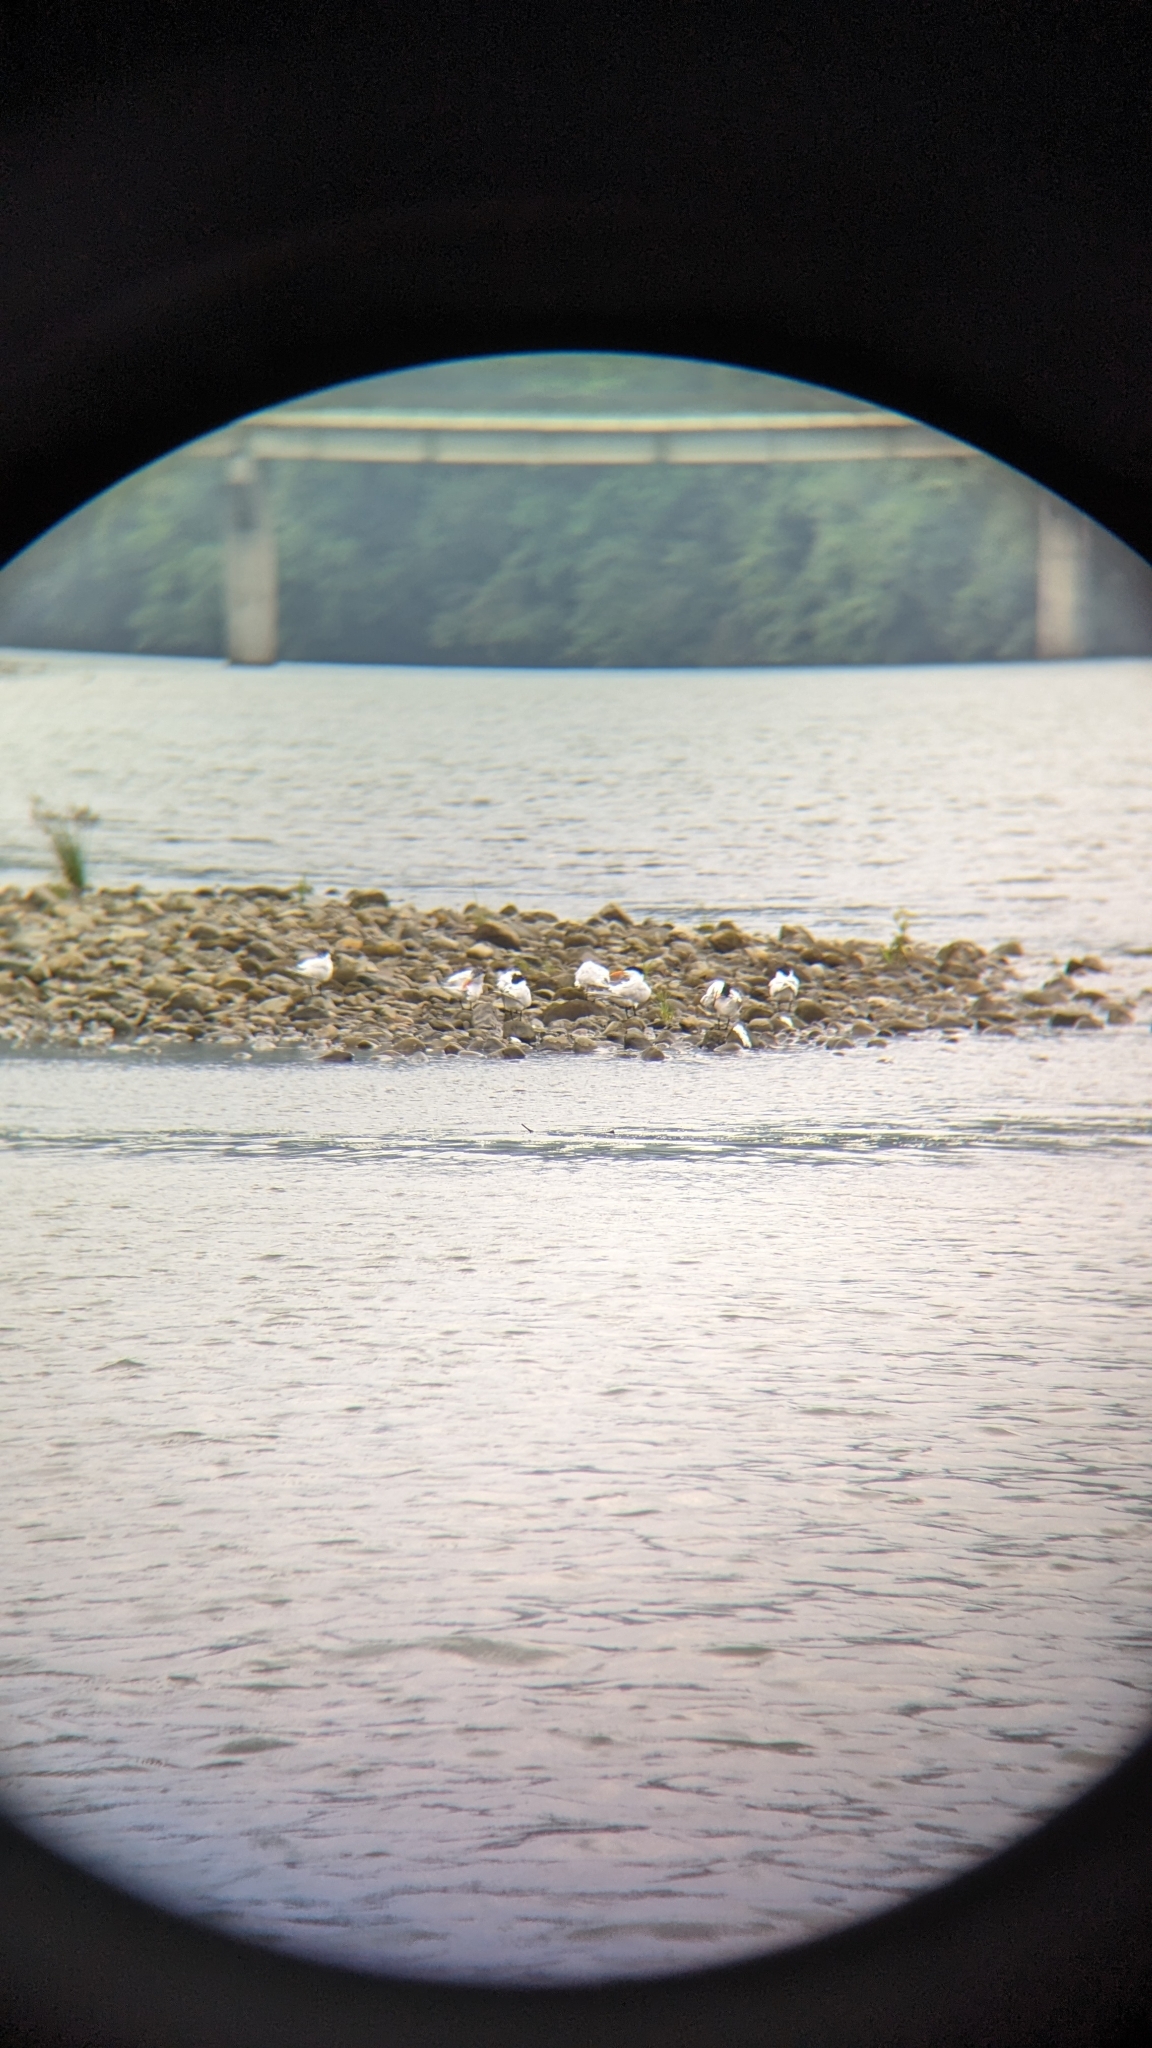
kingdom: Animalia
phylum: Chordata
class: Aves
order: Charadriiformes
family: Laridae
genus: Thalasseus
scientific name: Thalasseus maximus
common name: Royal tern
